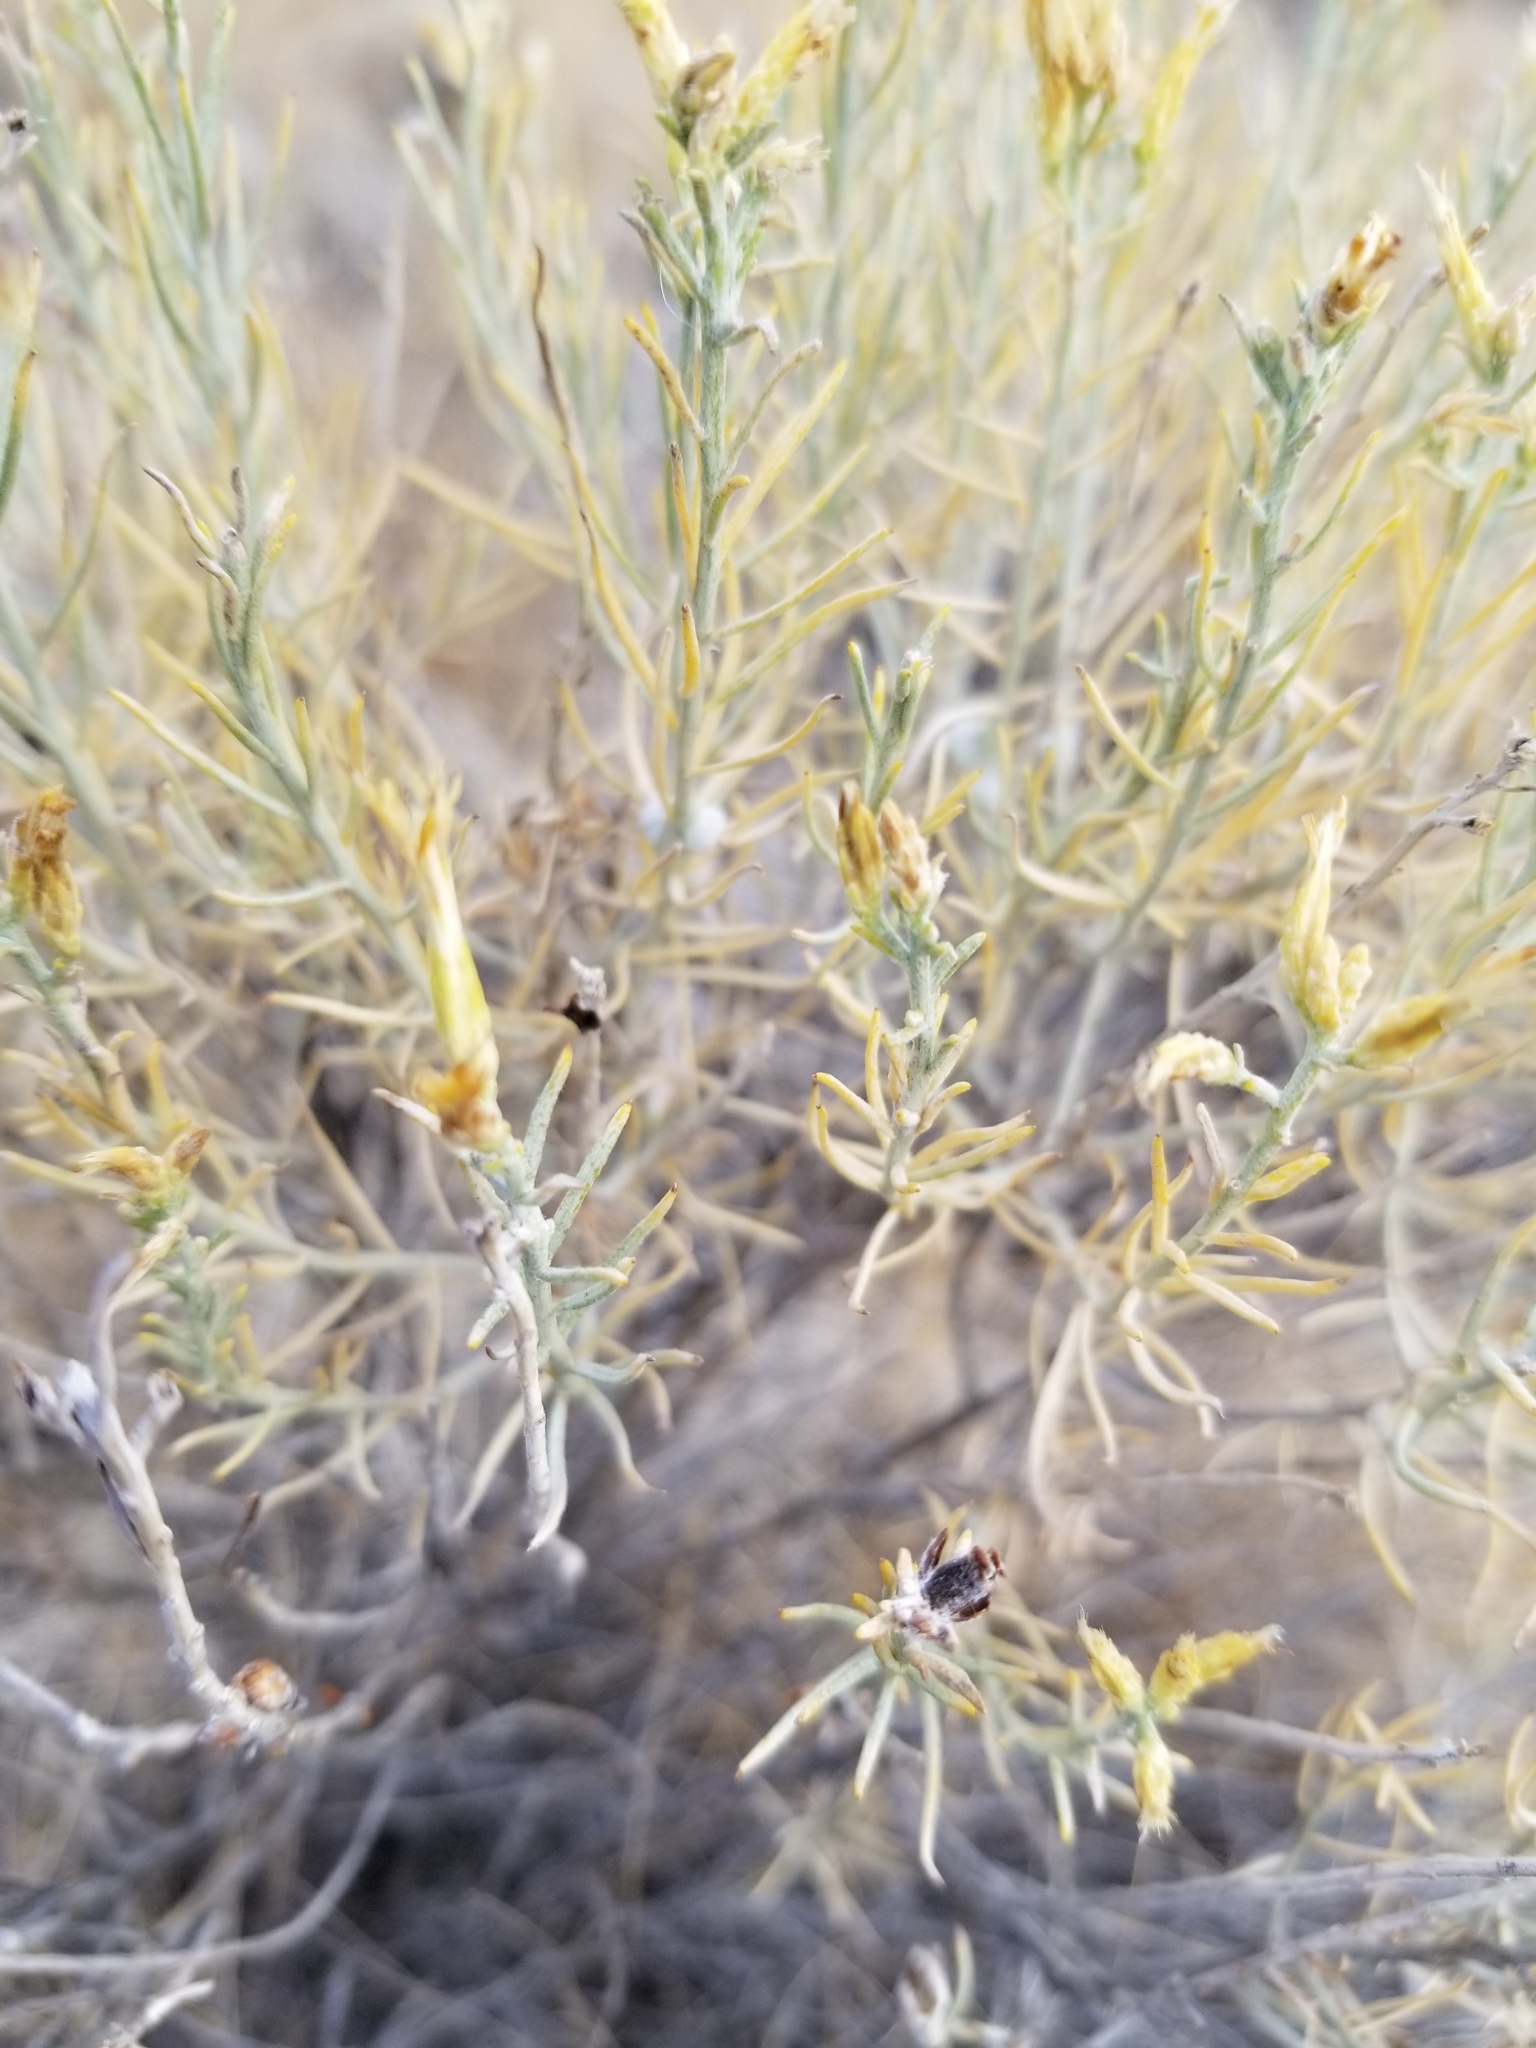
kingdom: Plantae
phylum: Tracheophyta
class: Magnoliopsida
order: Asterales
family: Asteraceae
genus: Ericameria
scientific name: Ericameria nauseosa
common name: Rubber rabbitbrush
